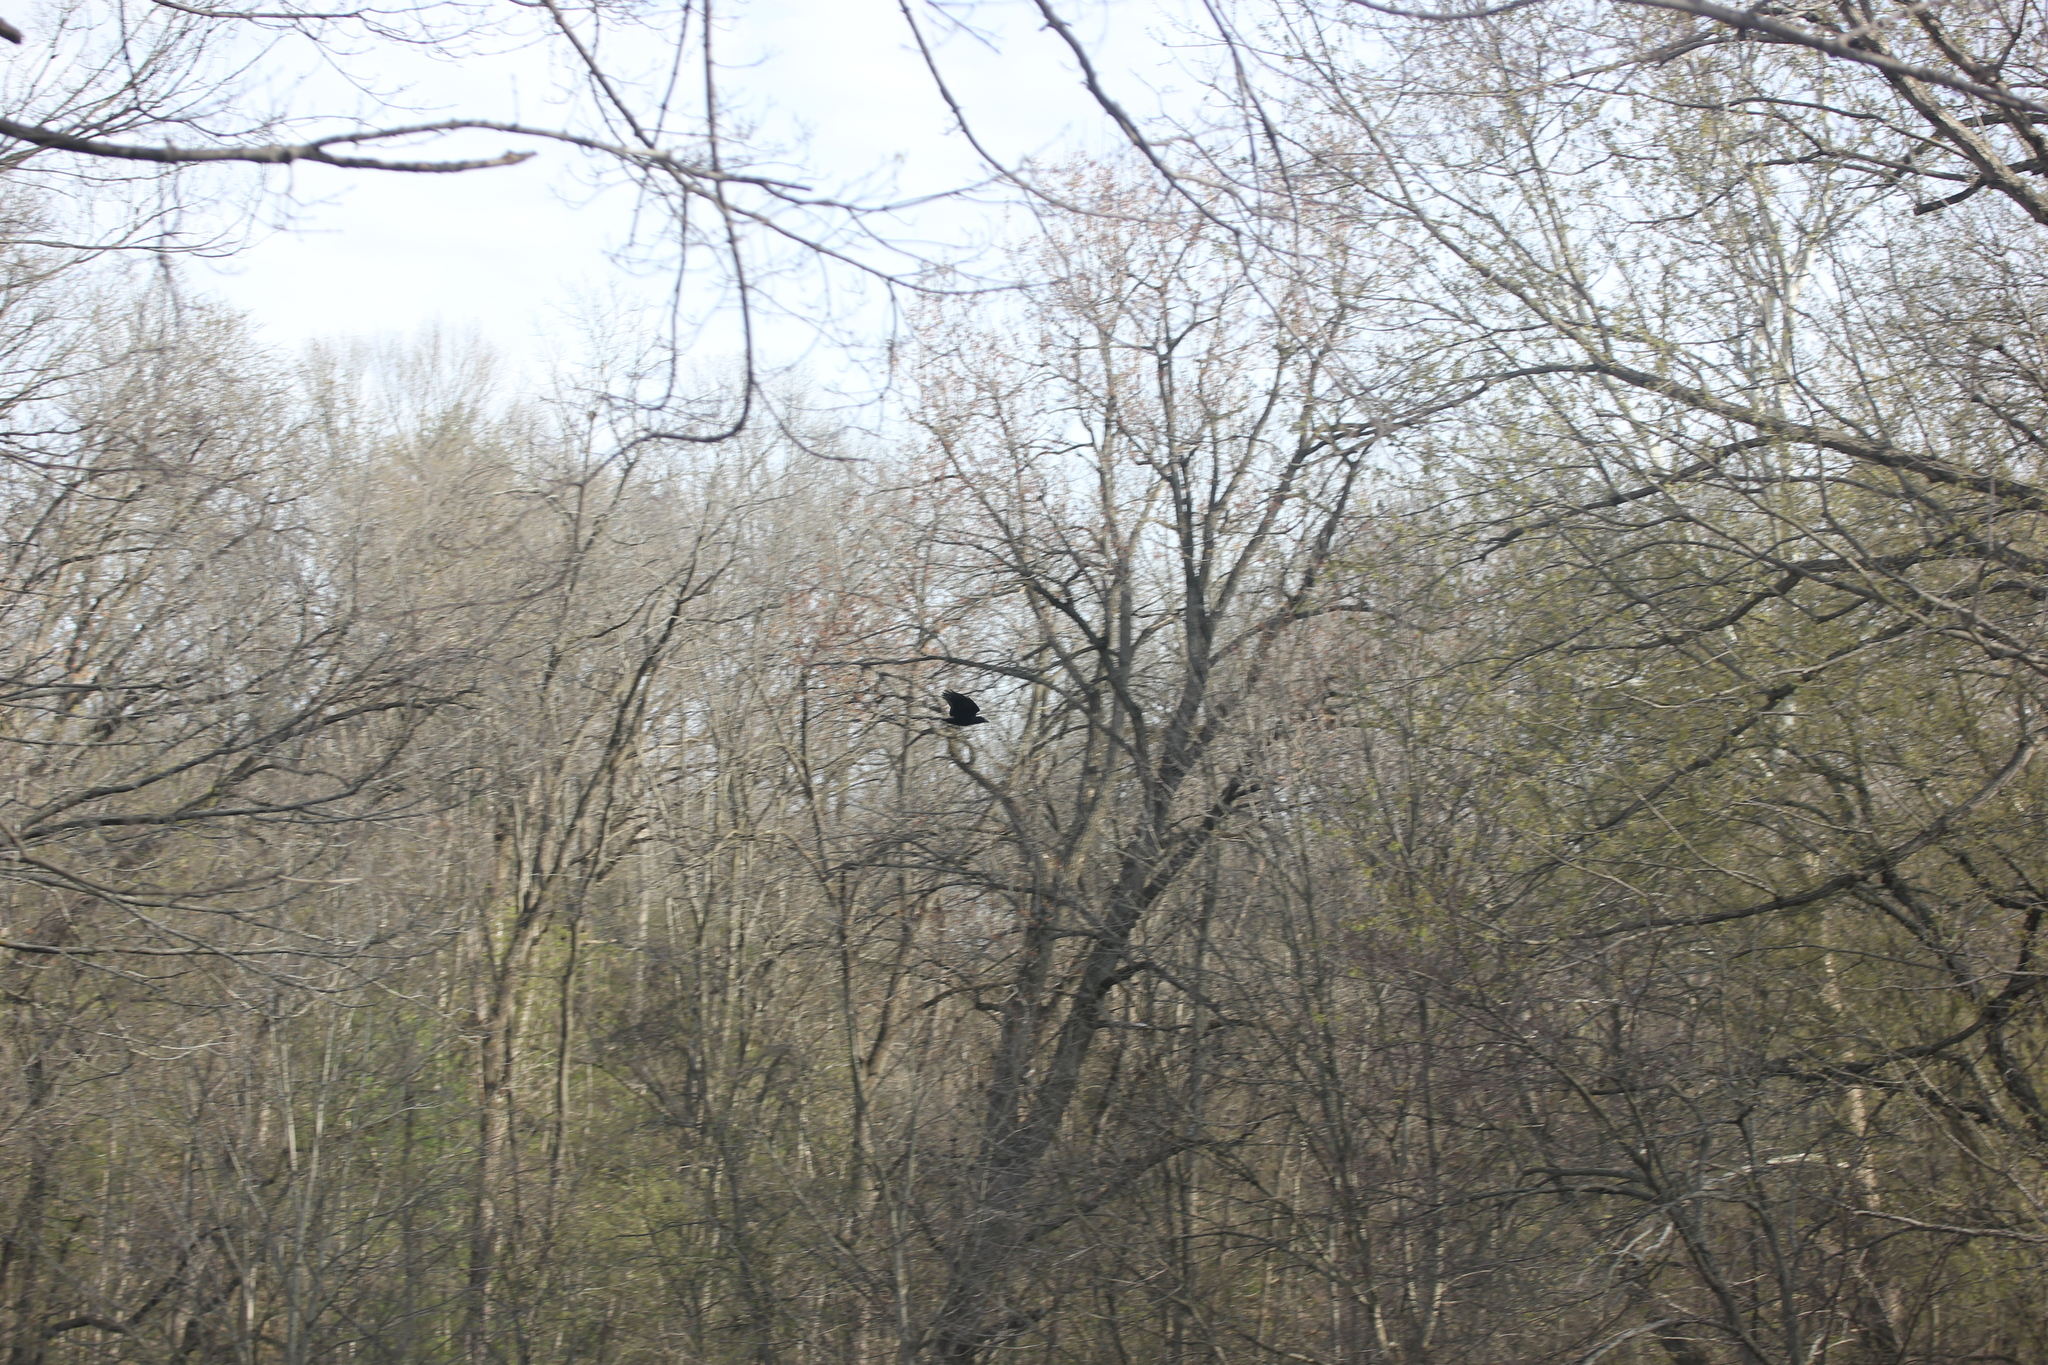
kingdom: Animalia
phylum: Chordata
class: Aves
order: Passeriformes
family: Corvidae
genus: Corvus
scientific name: Corvus brachyrhynchos
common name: American crow
